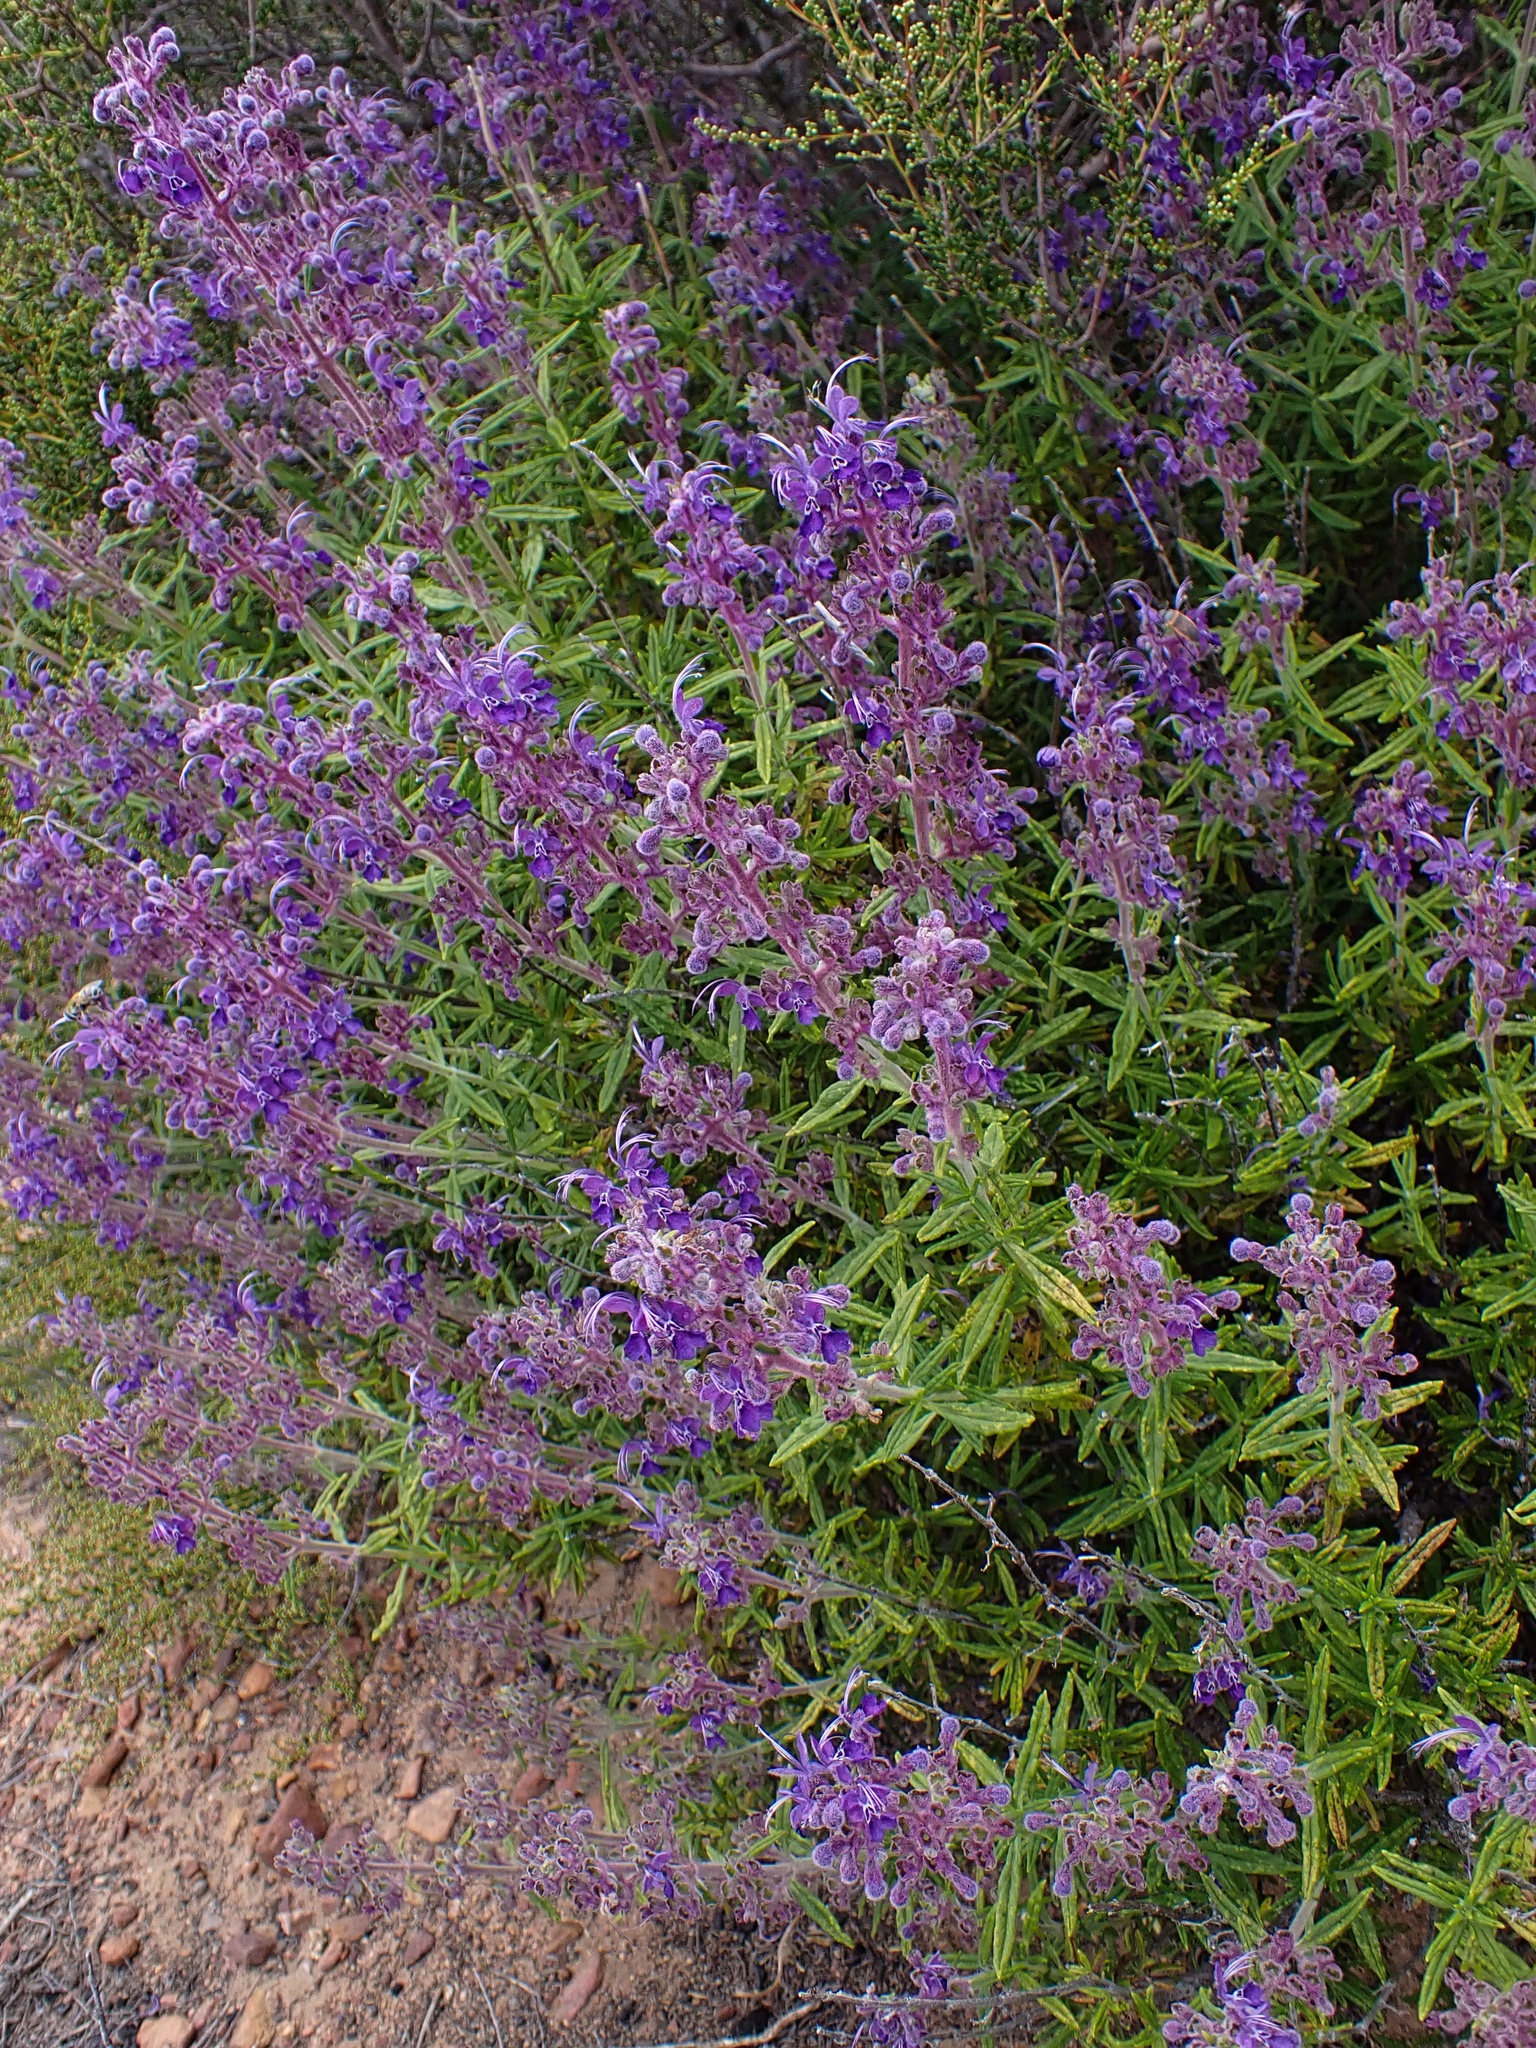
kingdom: Plantae
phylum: Tracheophyta
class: Magnoliopsida
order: Lamiales
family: Lamiaceae
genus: Trichostema
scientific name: Trichostema parishii
